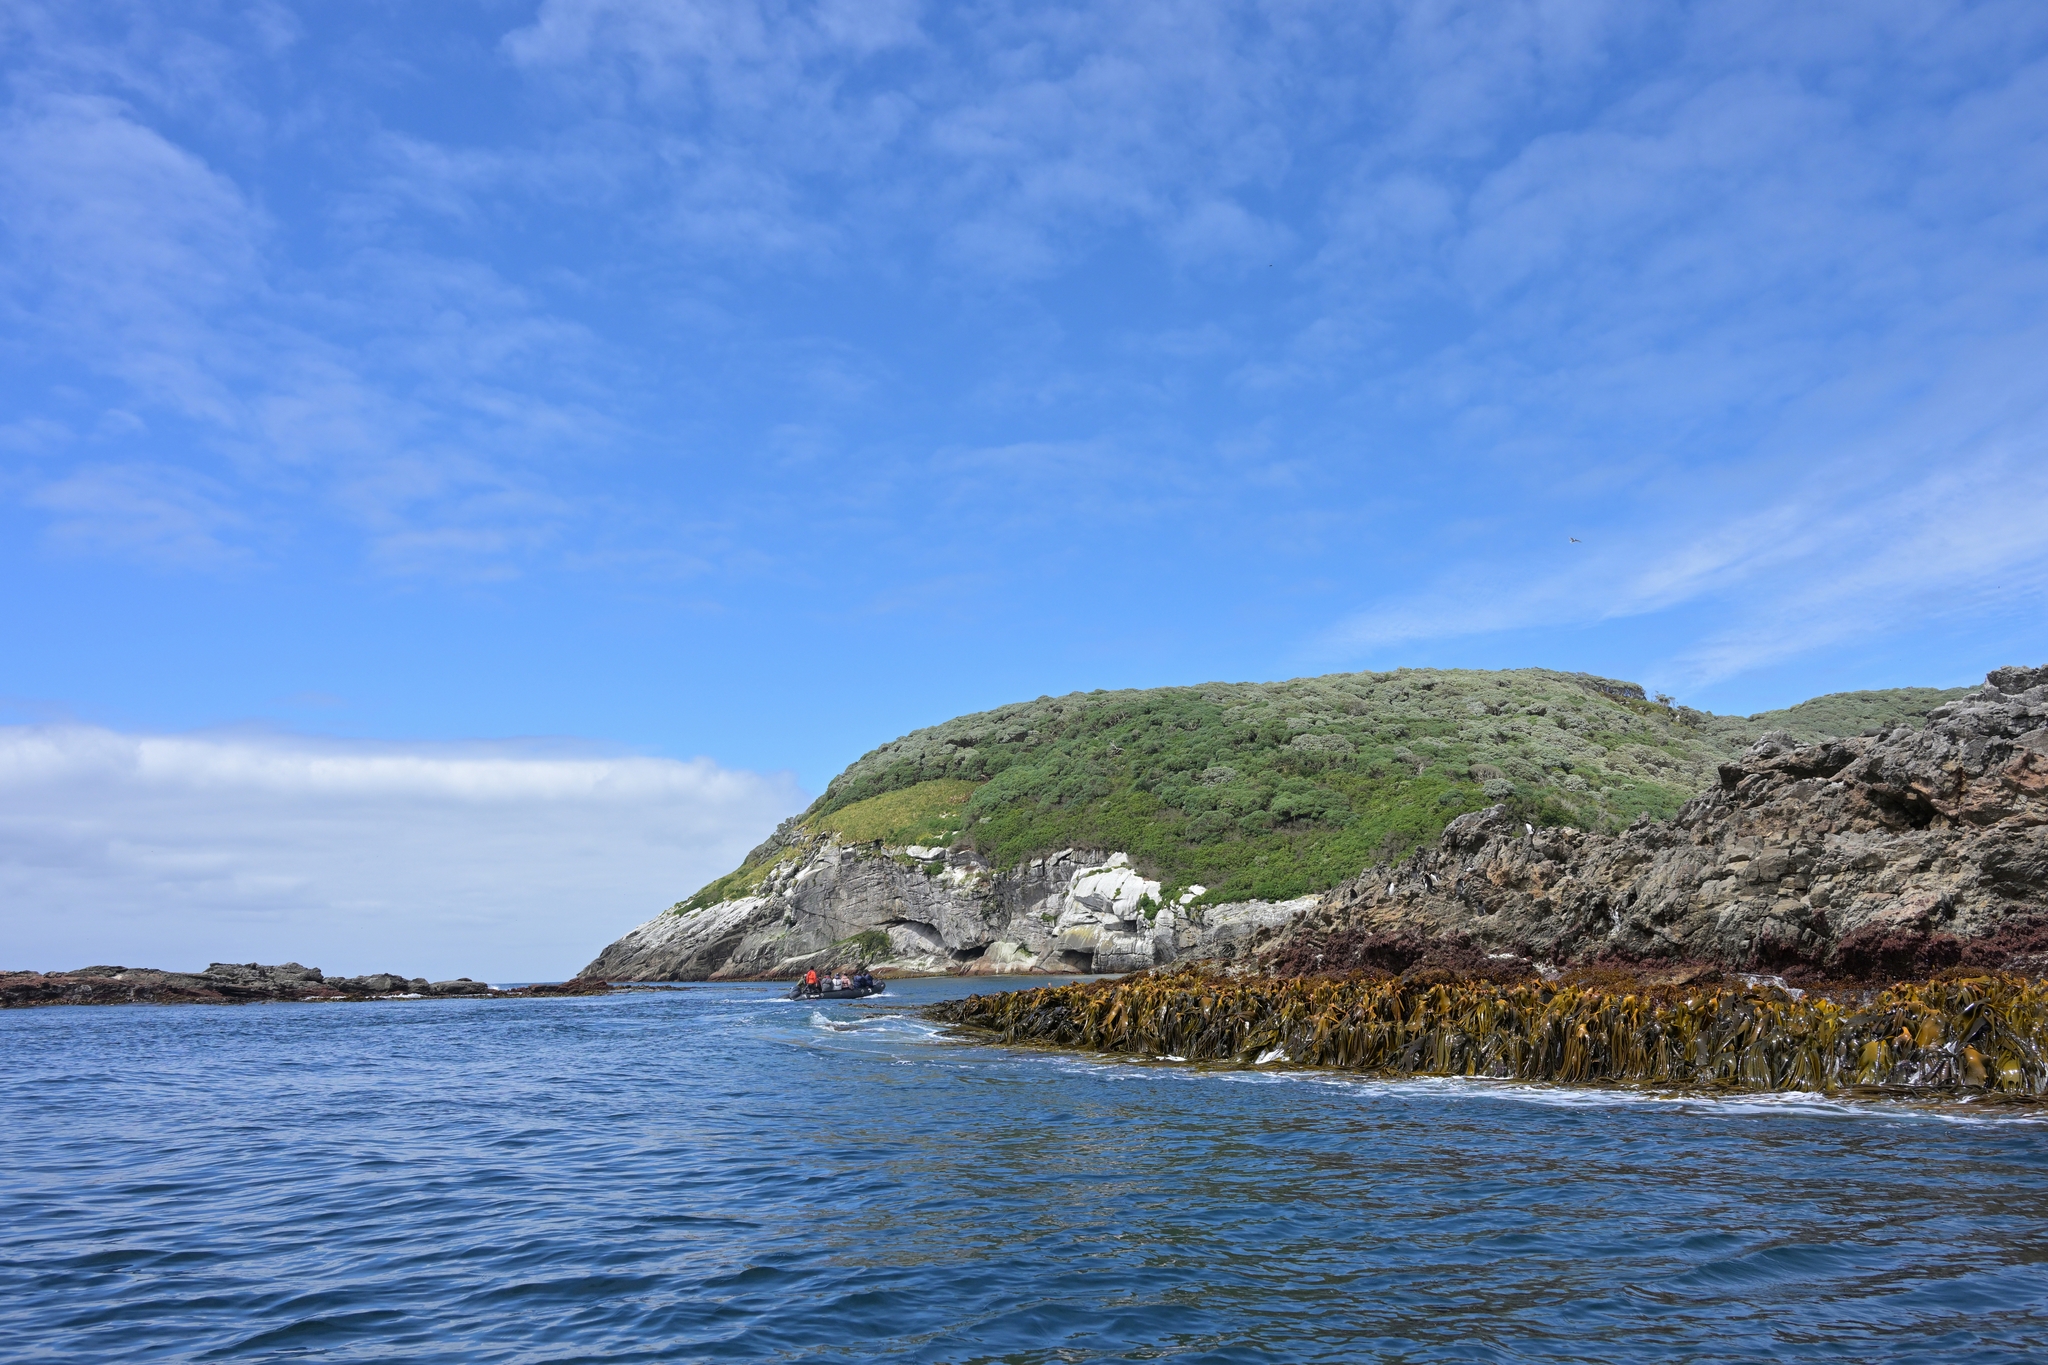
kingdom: Chromista
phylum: Ochrophyta
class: Phaeophyceae
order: Fucales
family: Durvillaeaceae
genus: Durvillaea
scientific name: Durvillaea antarctica
